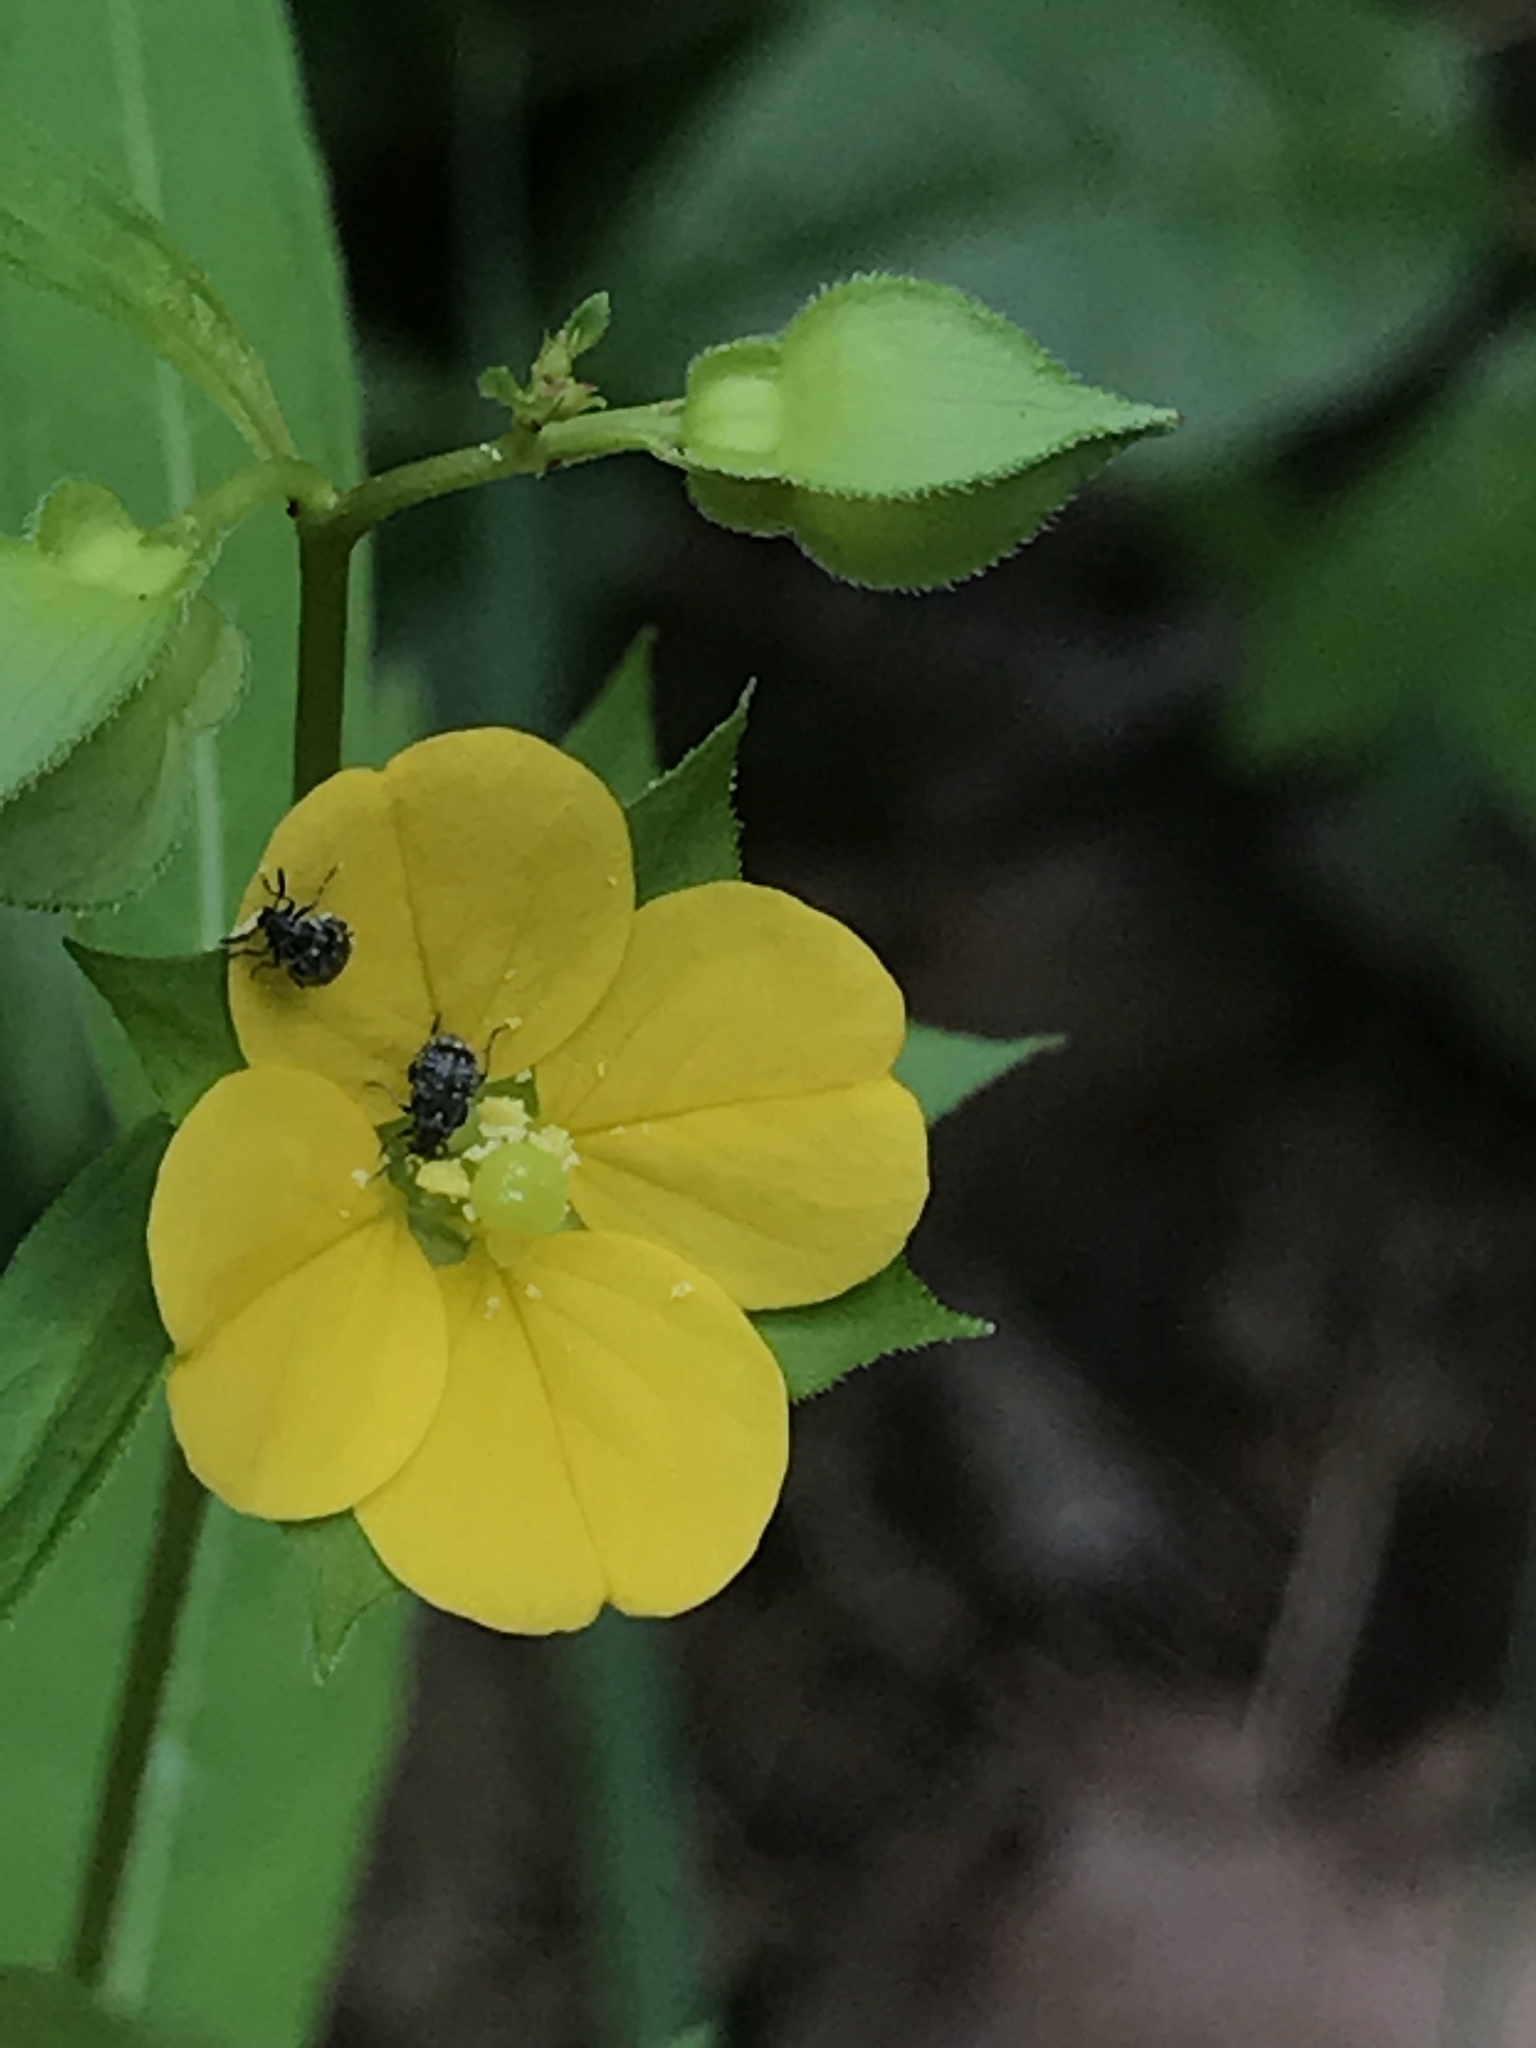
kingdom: Plantae
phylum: Tracheophyta
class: Magnoliopsida
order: Myrtales
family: Onagraceae
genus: Ludwigia
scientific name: Ludwigia alternifolia
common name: Rattlebox
